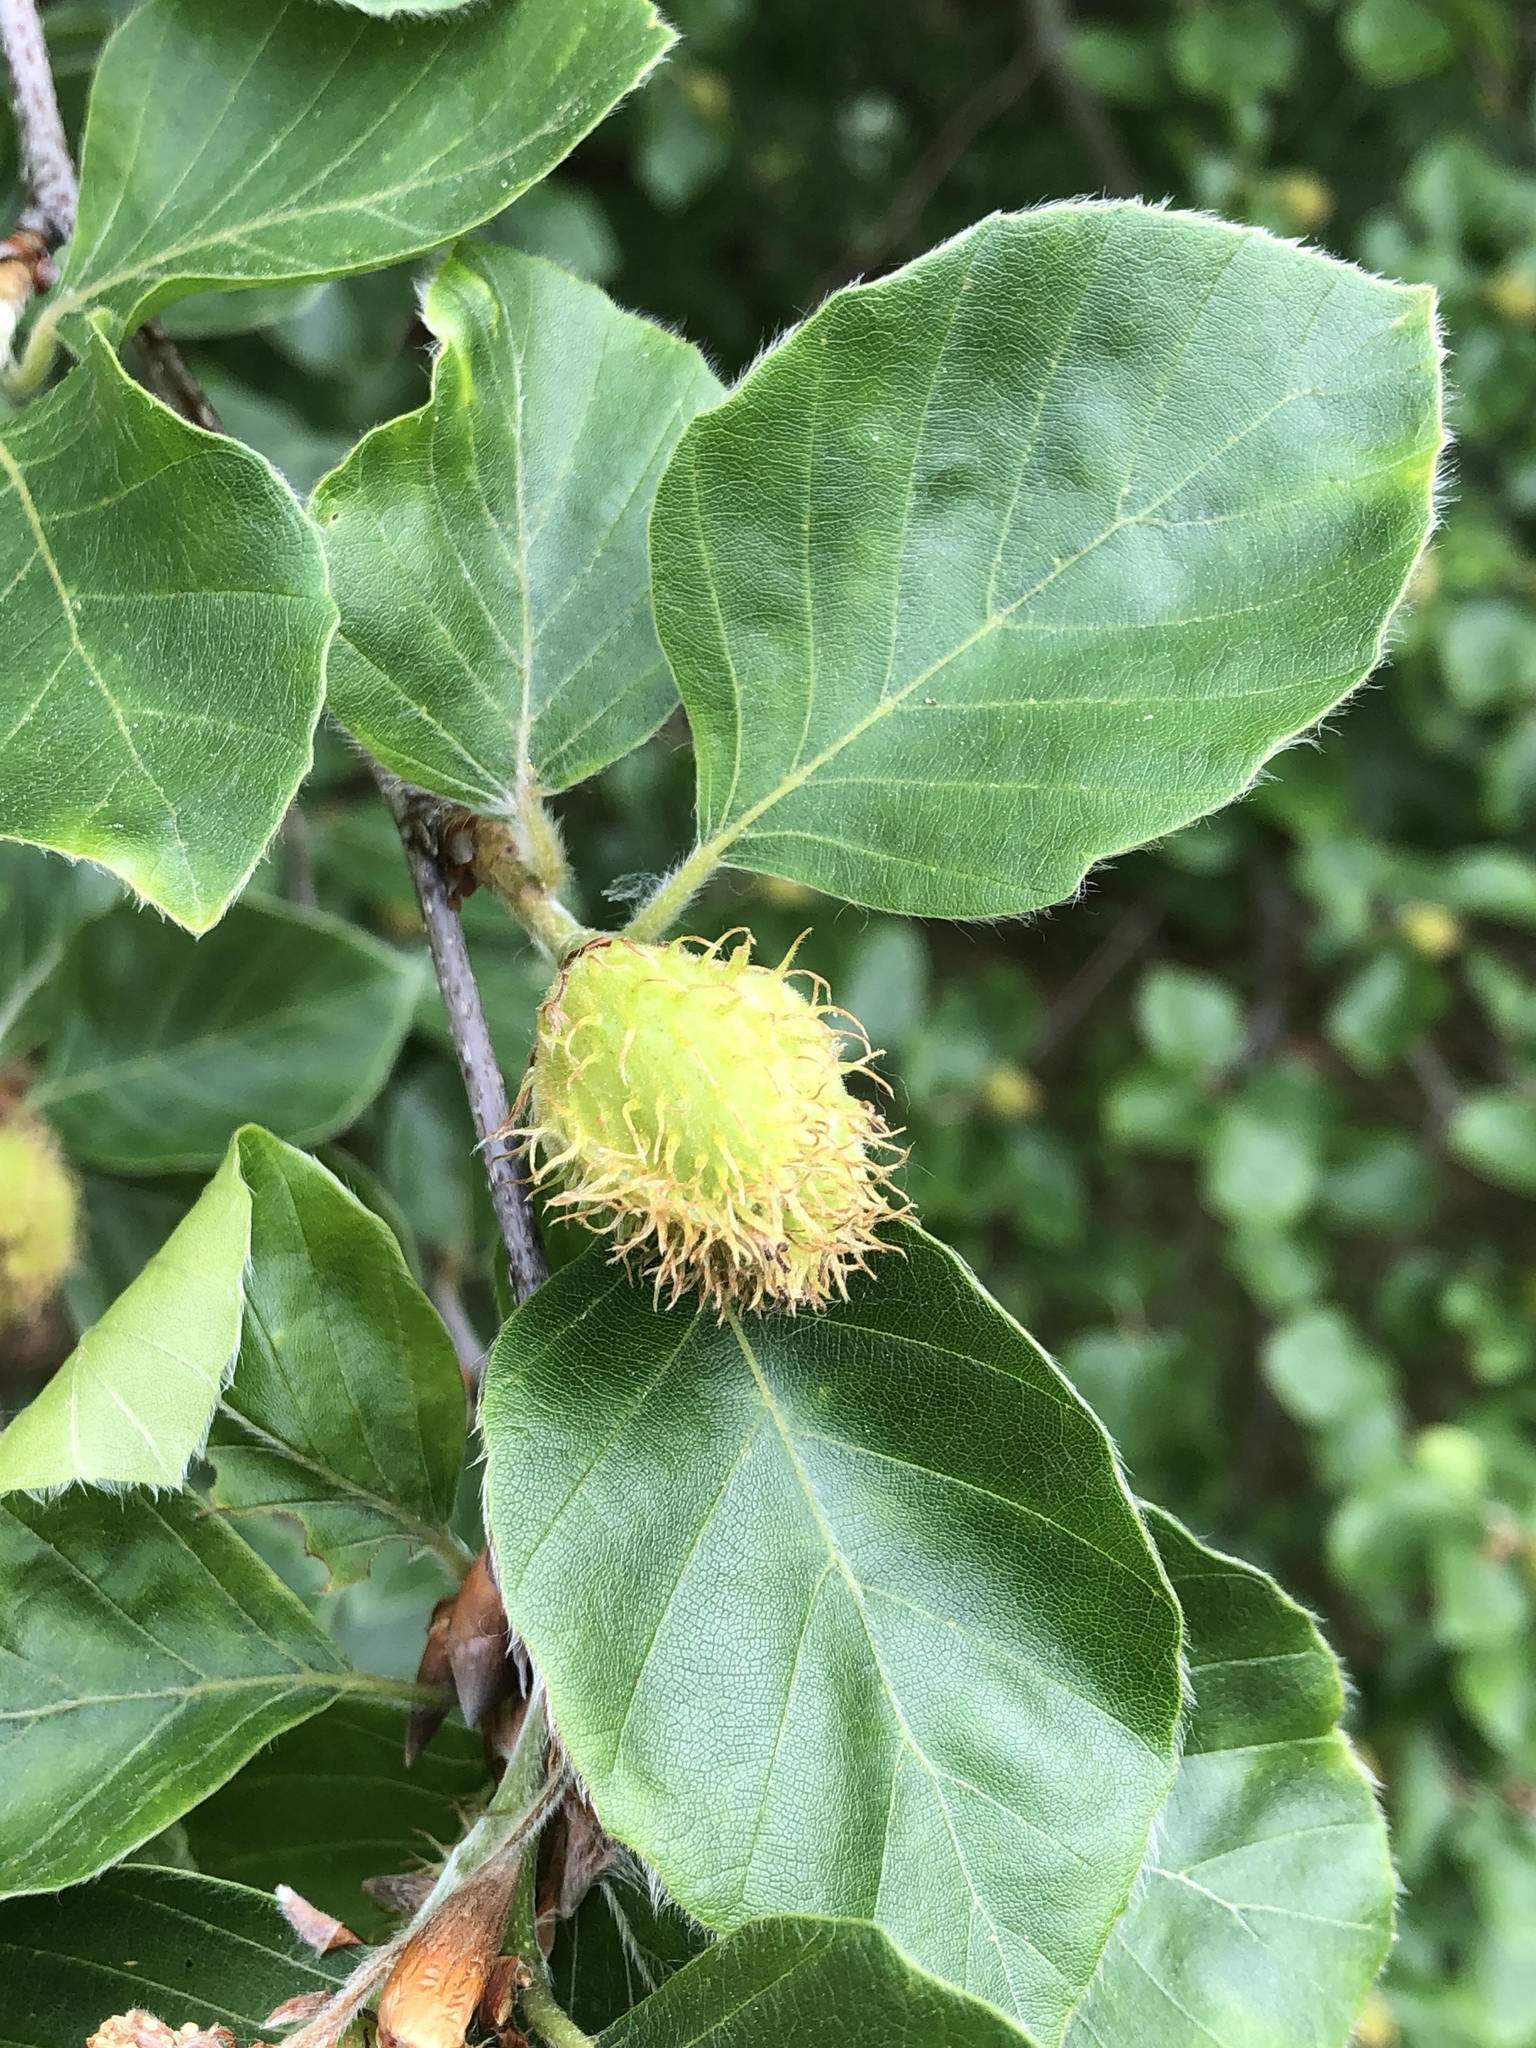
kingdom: Plantae
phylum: Tracheophyta
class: Magnoliopsida
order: Fagales
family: Fagaceae
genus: Fagus
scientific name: Fagus sylvatica
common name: Beech
